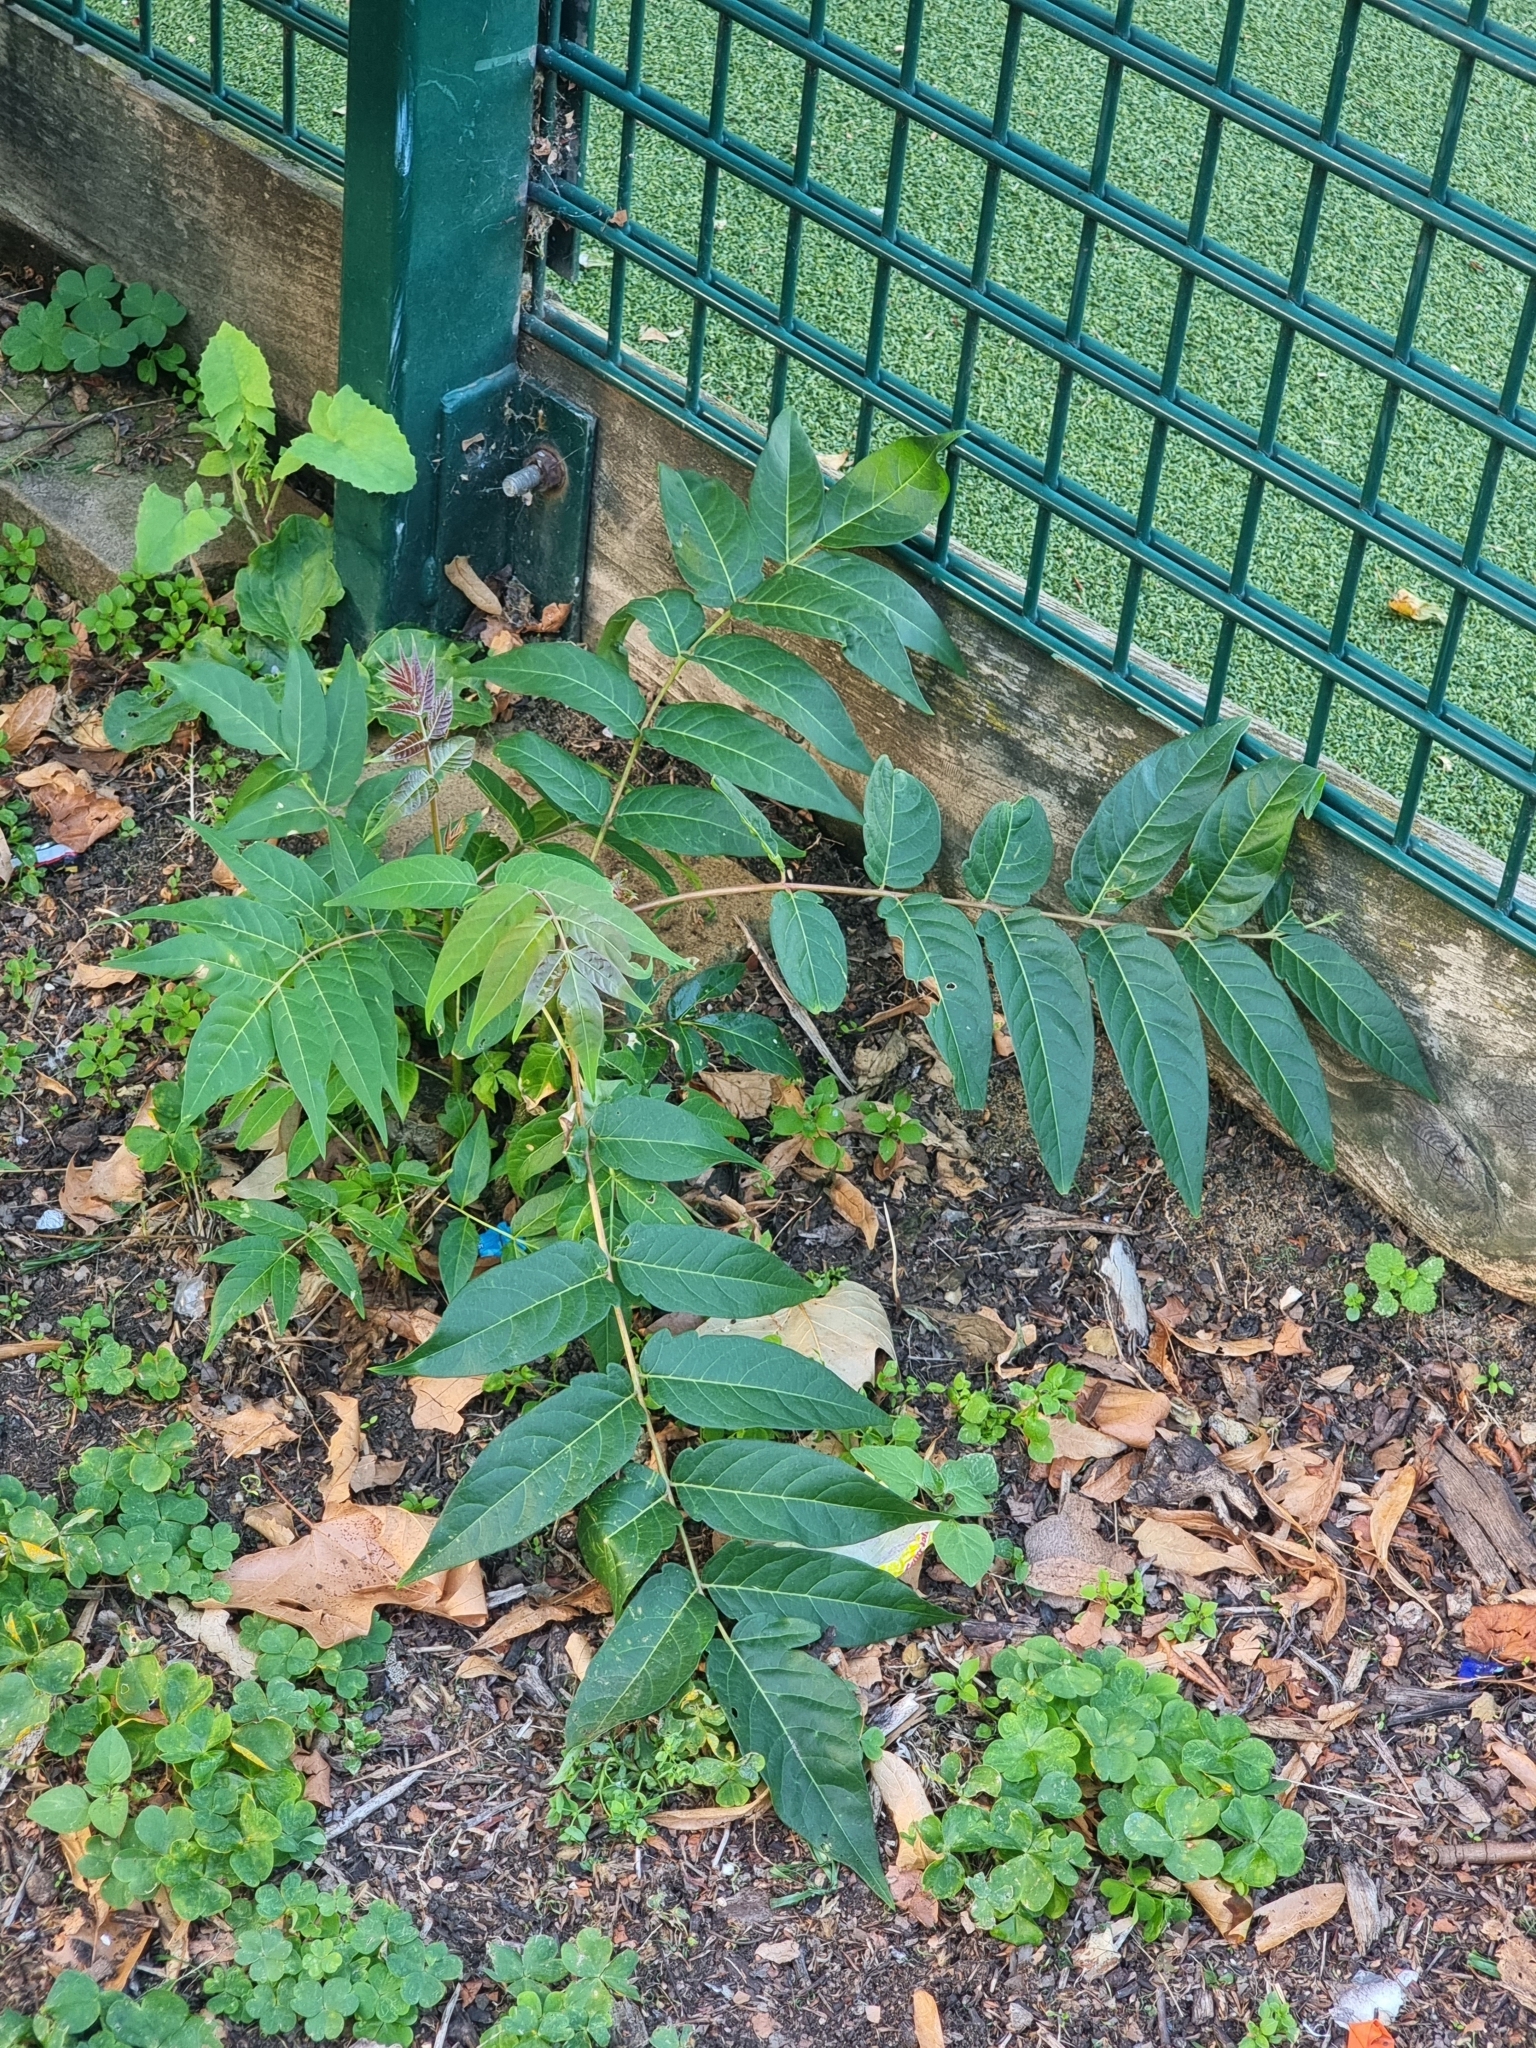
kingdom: Plantae
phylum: Tracheophyta
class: Magnoliopsida
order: Sapindales
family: Simaroubaceae
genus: Ailanthus
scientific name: Ailanthus altissima
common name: Tree-of-heaven
